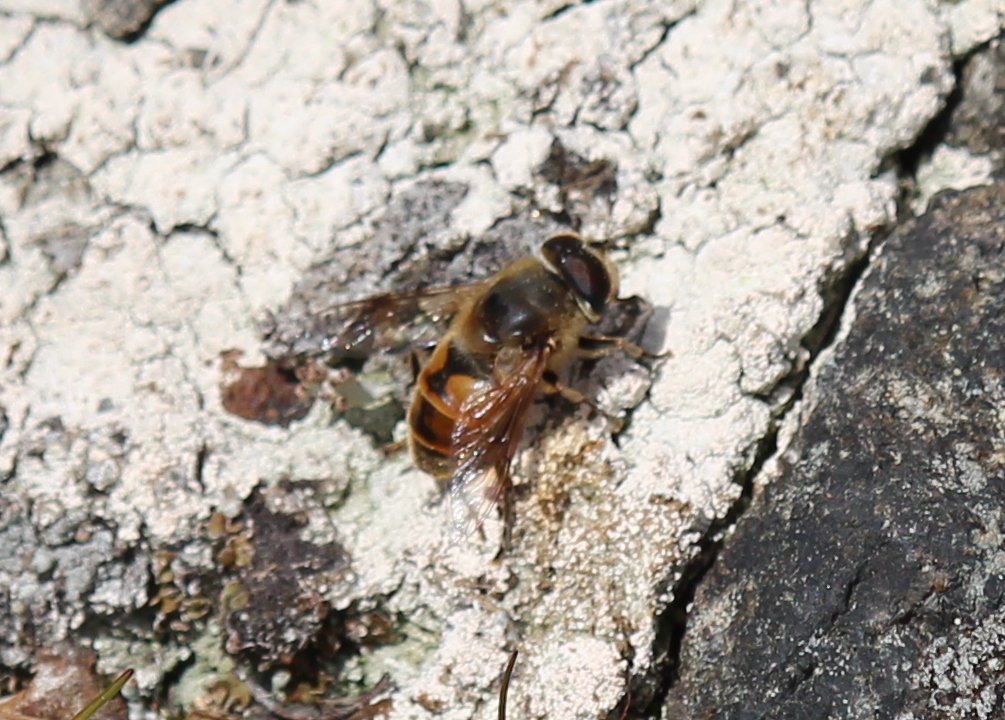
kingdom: Animalia
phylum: Arthropoda
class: Insecta
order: Diptera
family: Syrphidae
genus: Eristalis
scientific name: Eristalis tenax
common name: Drone fly
